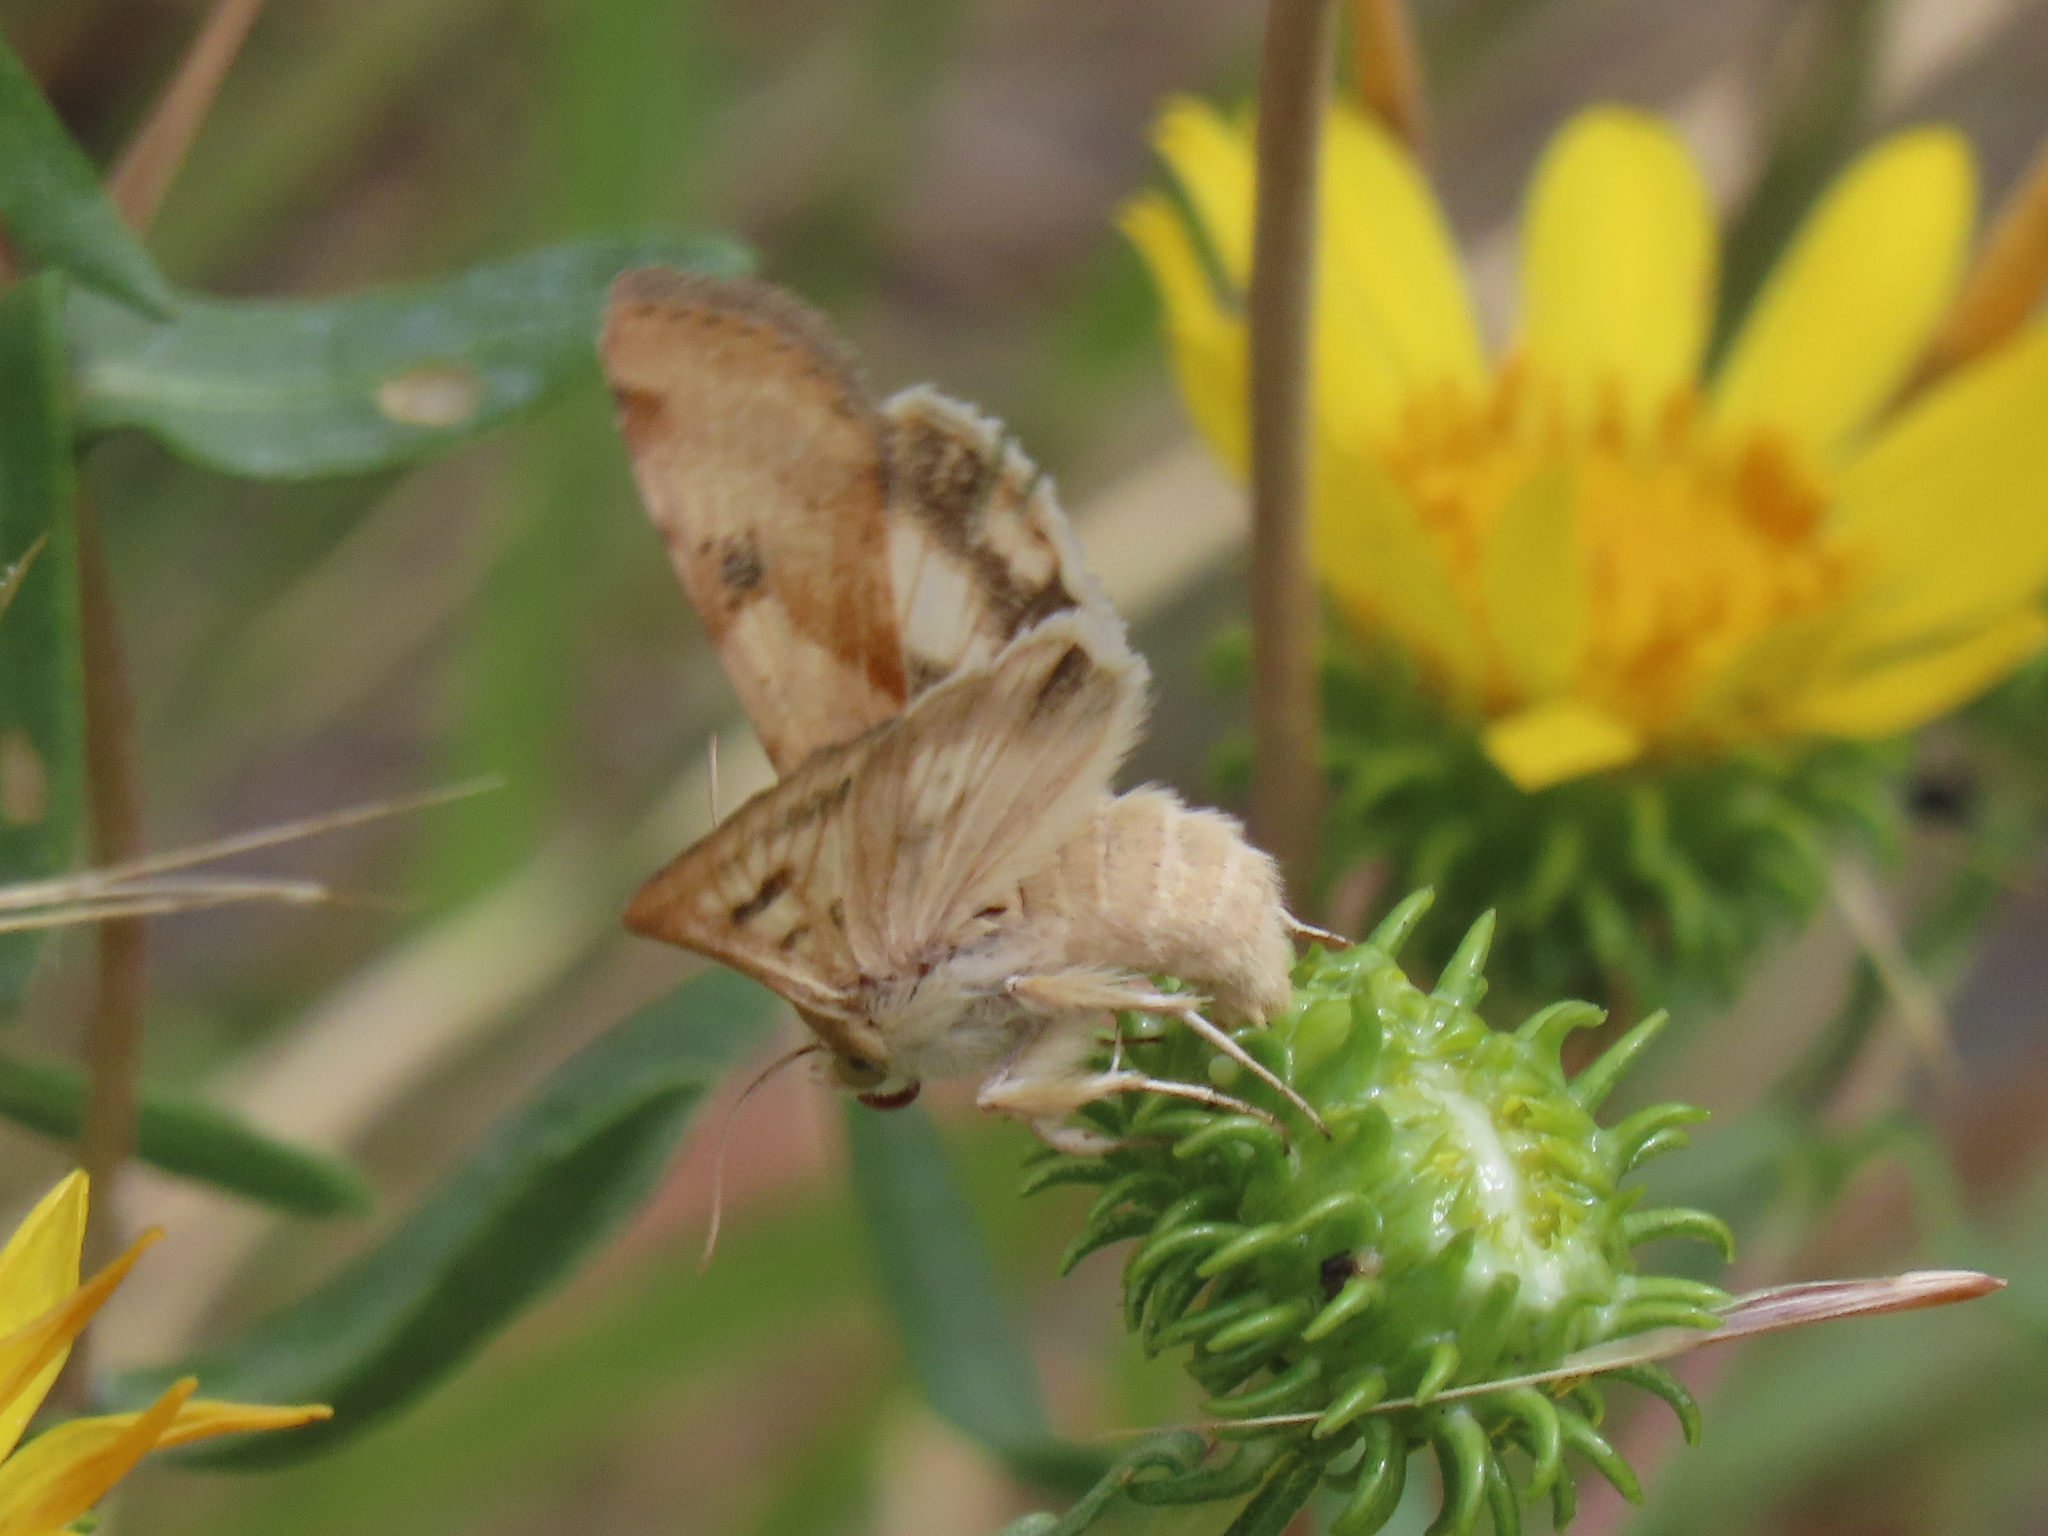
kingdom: Animalia
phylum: Arthropoda
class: Insecta
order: Lepidoptera
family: Noctuidae
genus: Heliothis
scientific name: Heliothis phloxiphaga
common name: Darker spotted straw moth
